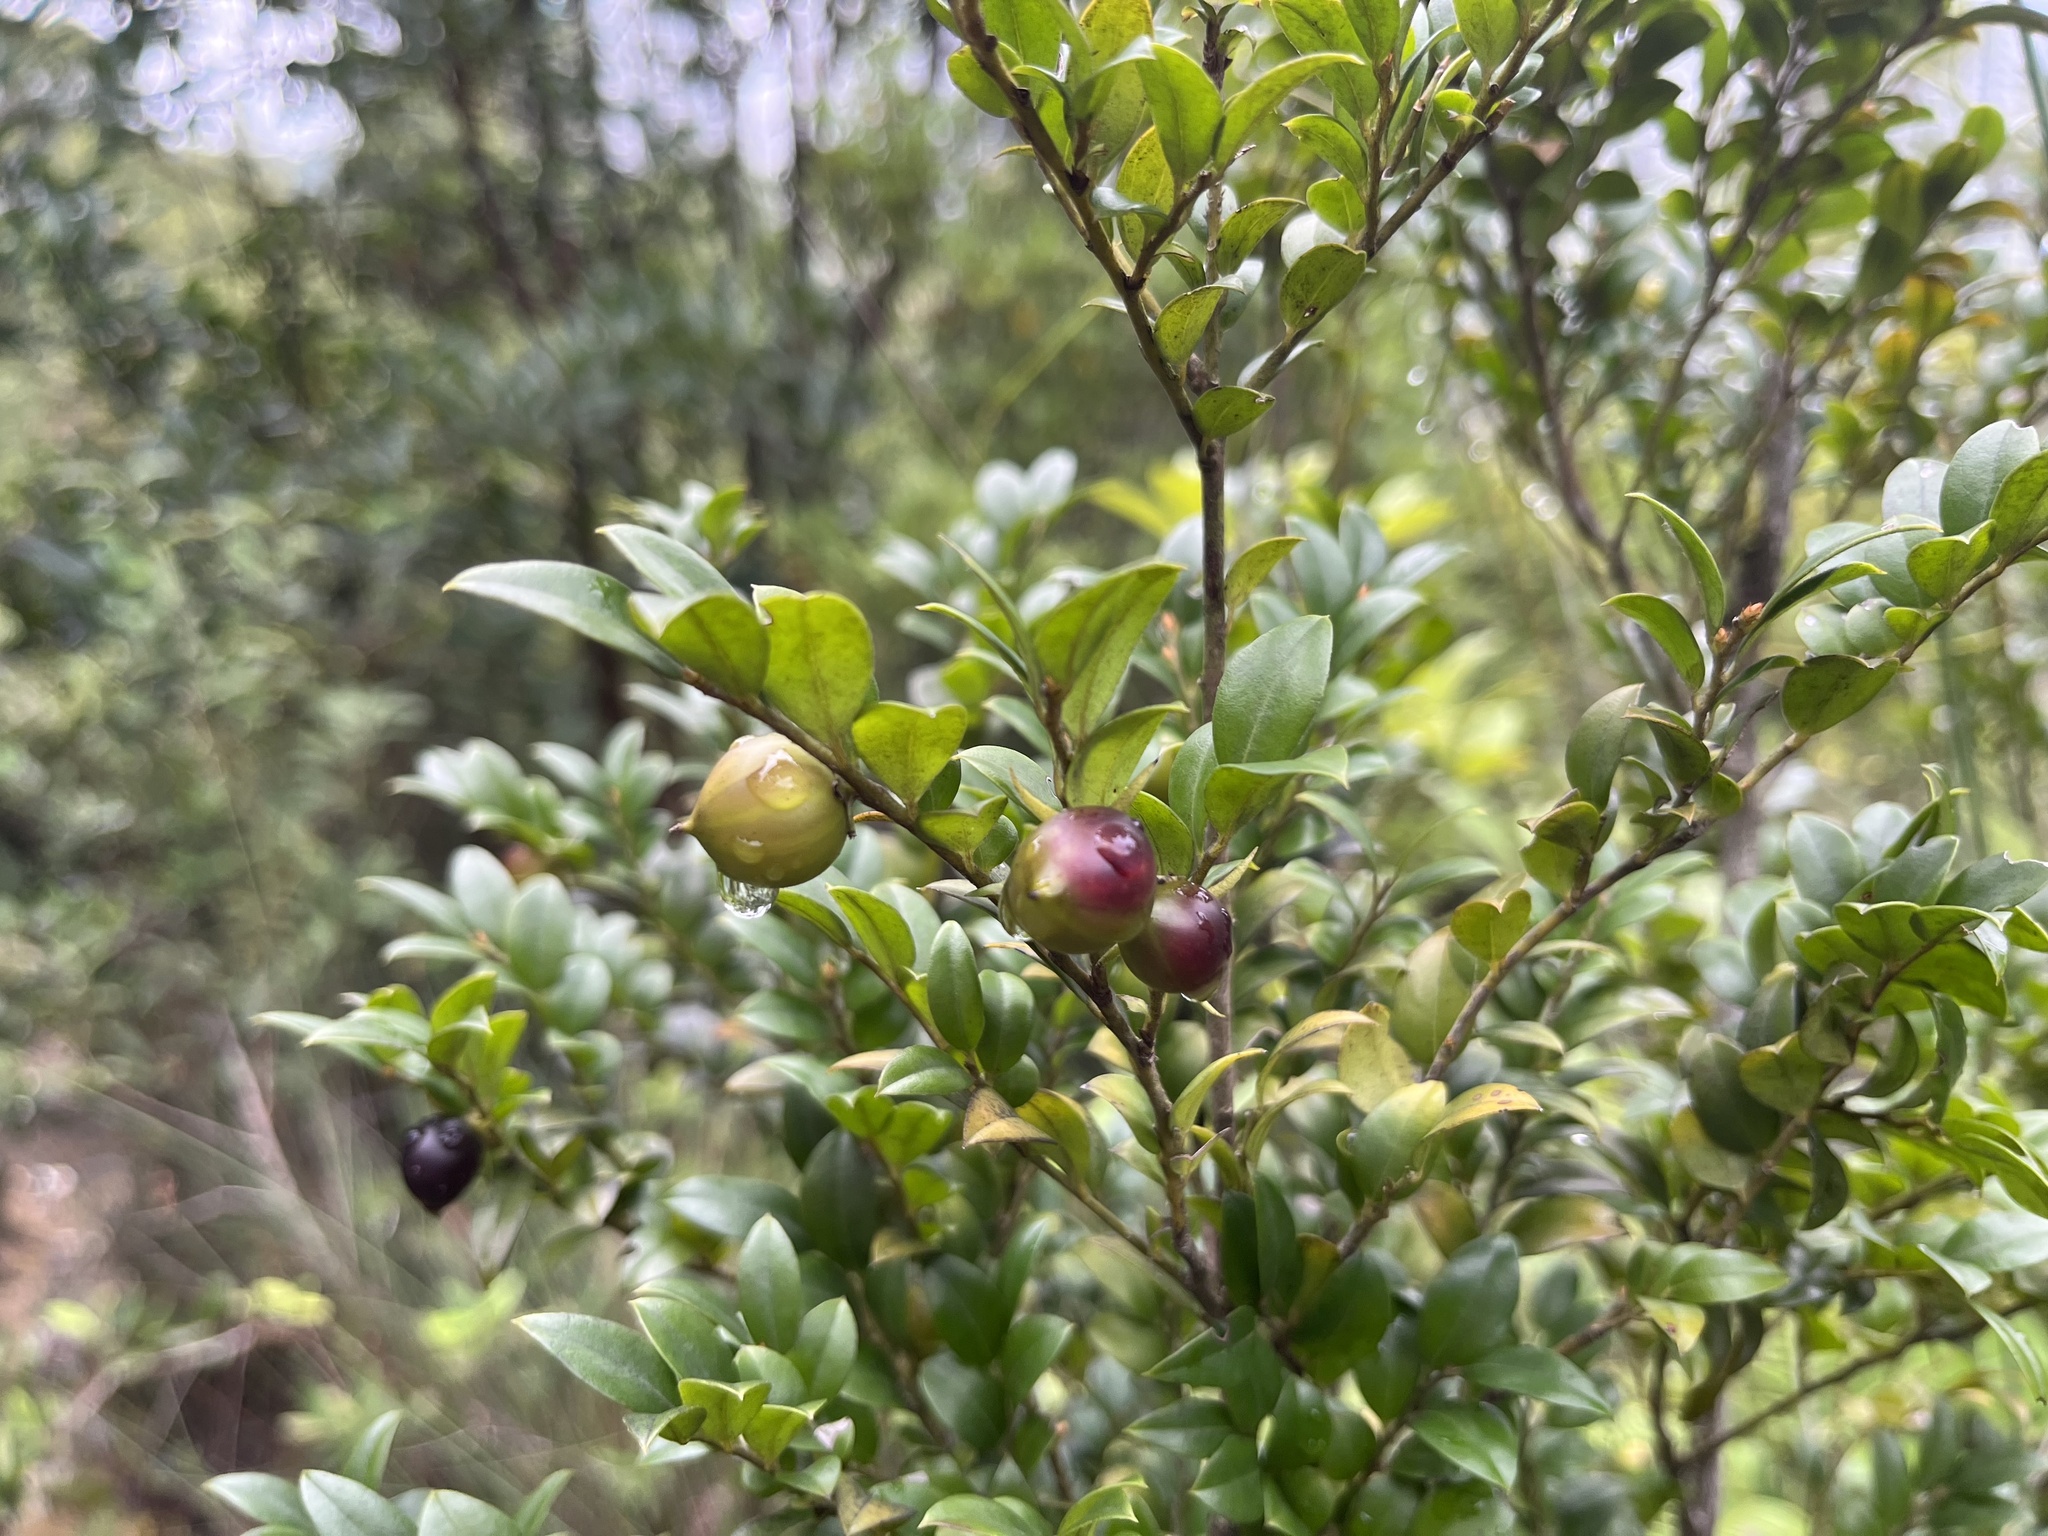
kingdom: Plantae
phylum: Tracheophyta
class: Magnoliopsida
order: Ericales
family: Ebenaceae
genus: Diospyros
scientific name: Diospyros vaccinioides
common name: Small persimmon
